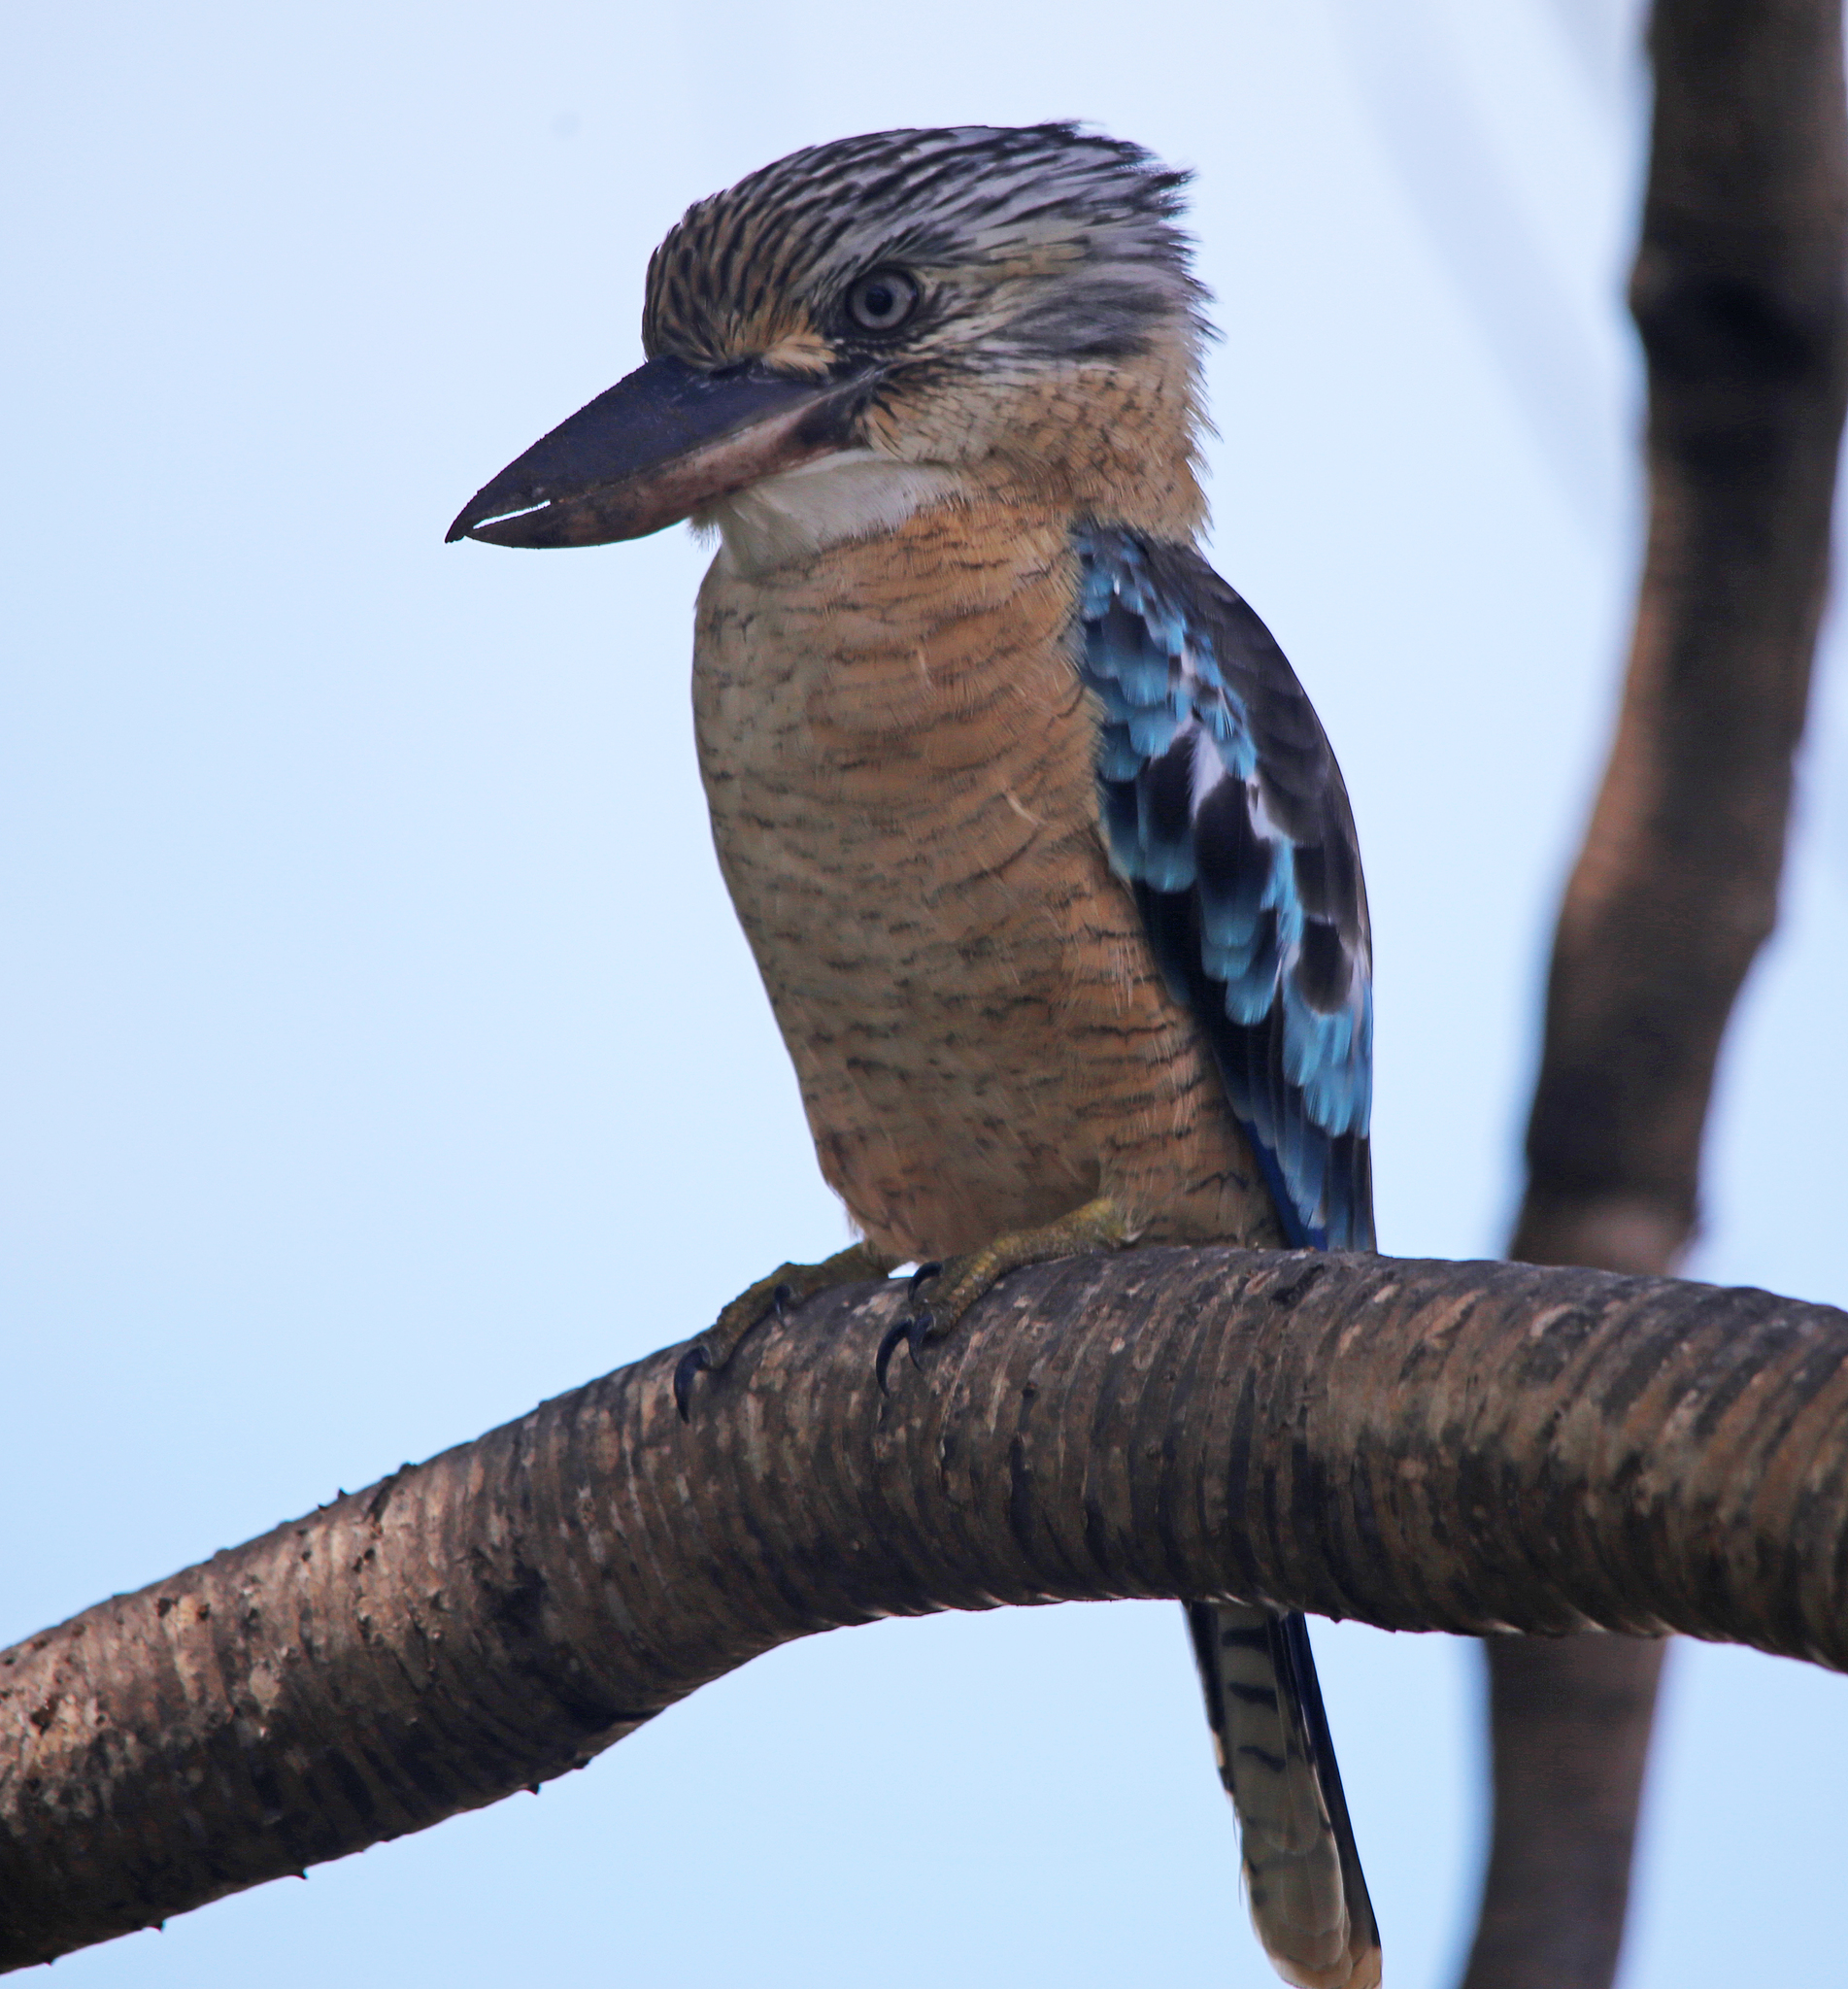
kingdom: Animalia
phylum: Chordata
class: Aves
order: Coraciiformes
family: Alcedinidae
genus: Dacelo
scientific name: Dacelo leachii
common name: Blue-winged kookaburra
